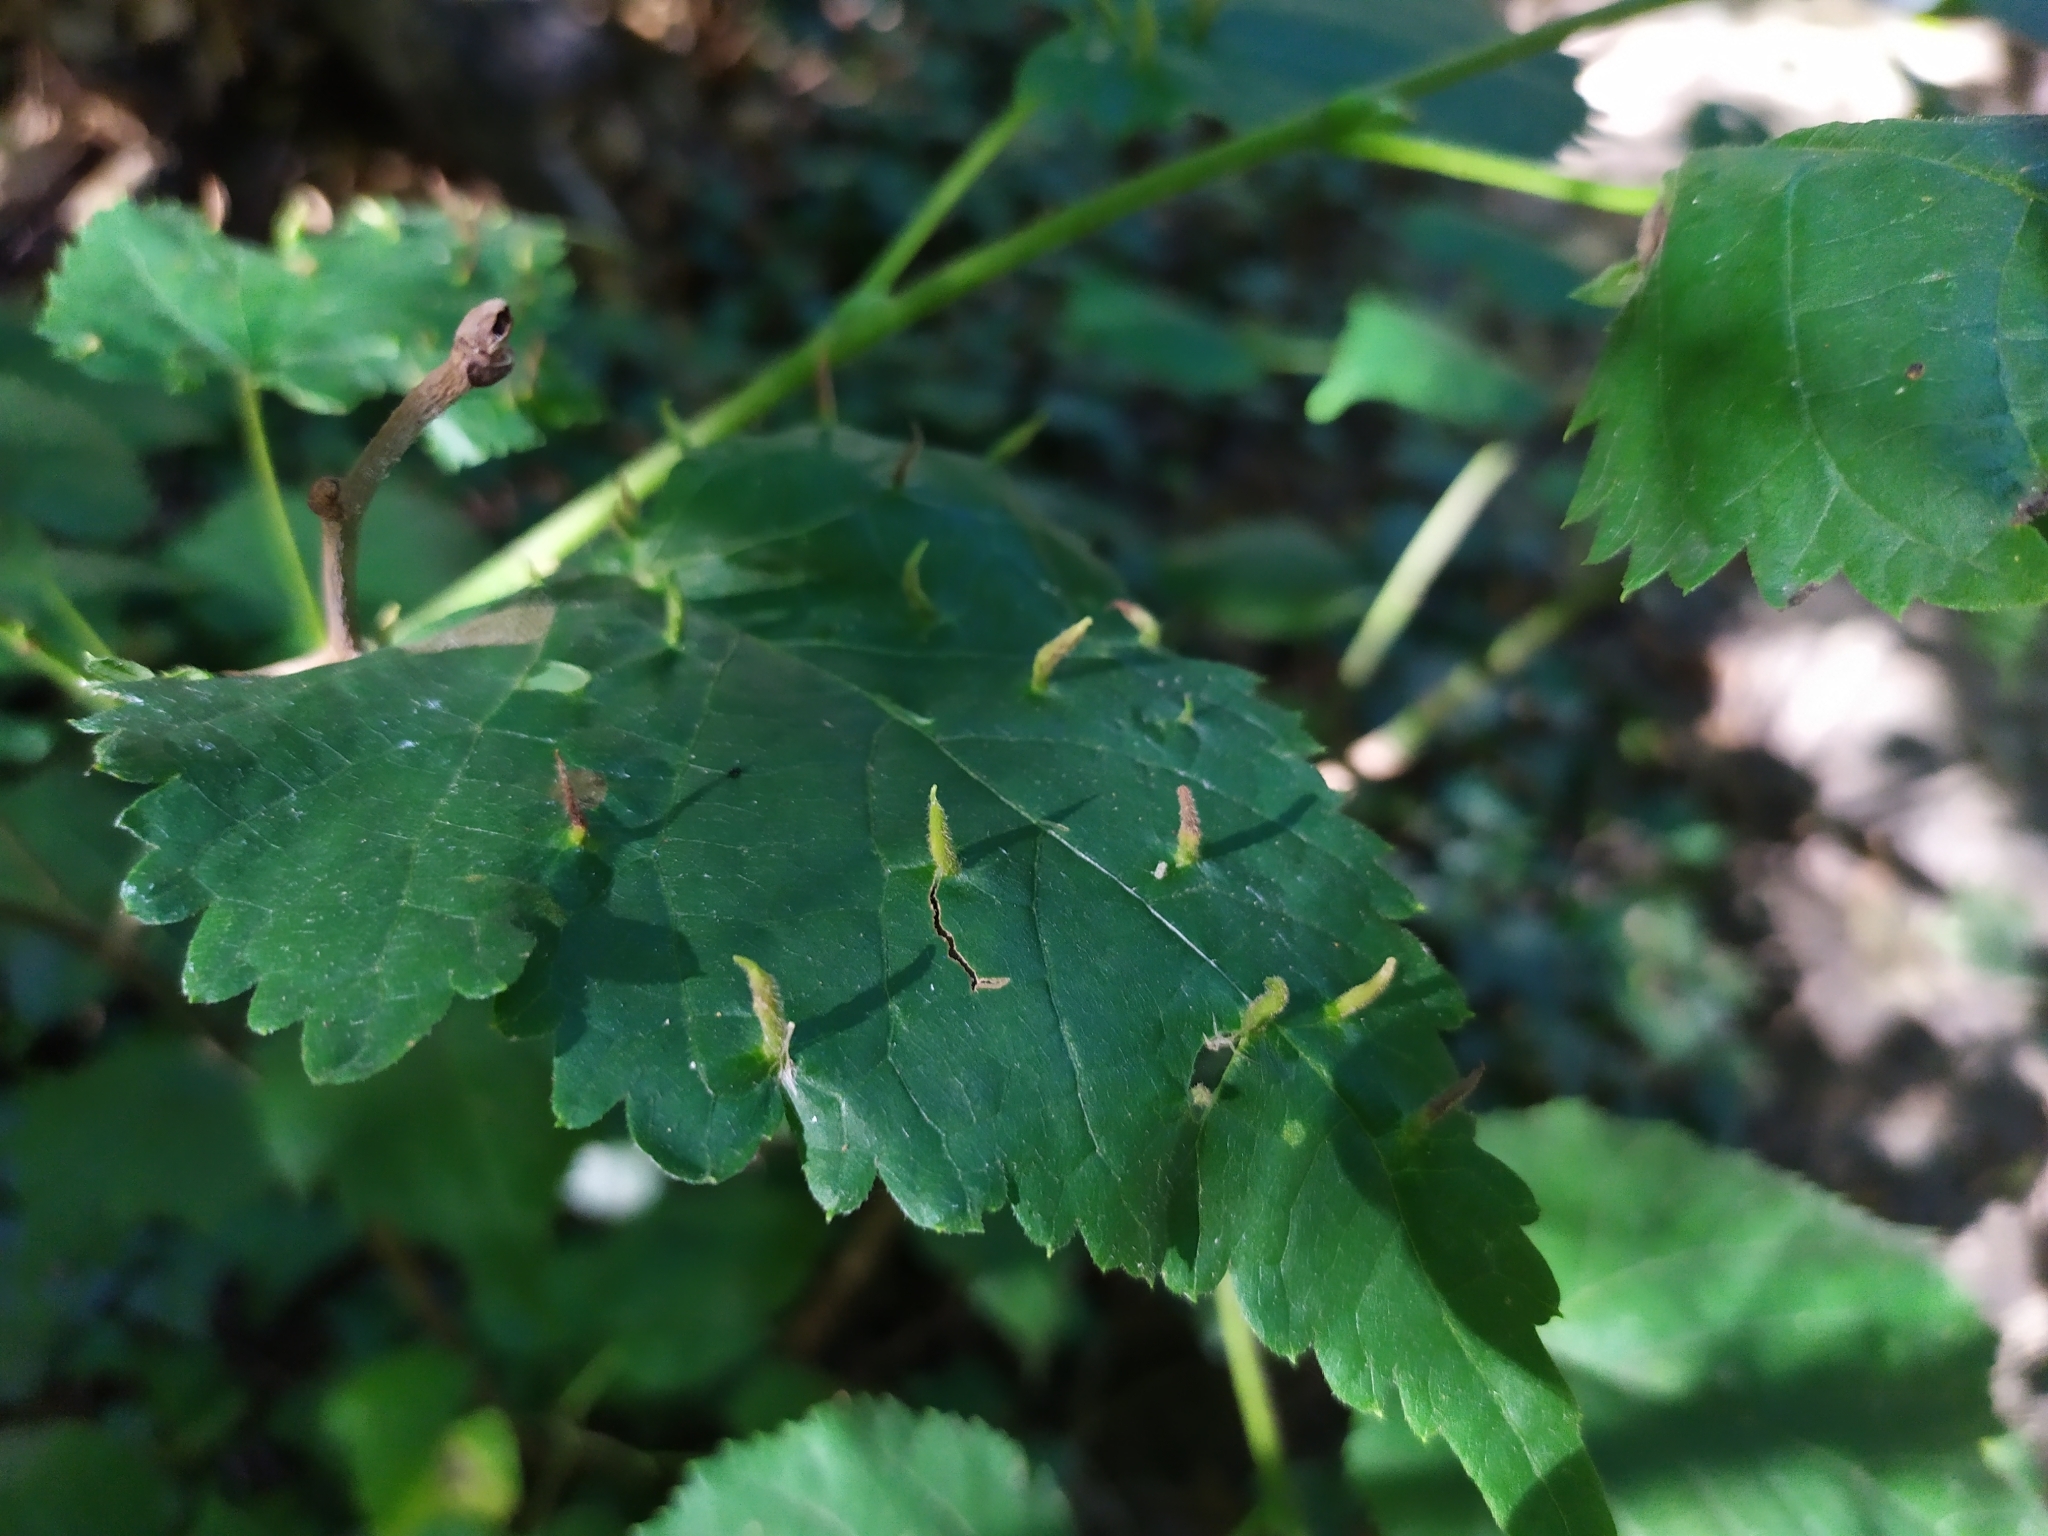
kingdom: Animalia
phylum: Arthropoda
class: Arachnida
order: Trombidiformes
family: Eriophyidae
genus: Eriophyes
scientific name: Eriophyes tiliae
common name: Red nail gall mite
